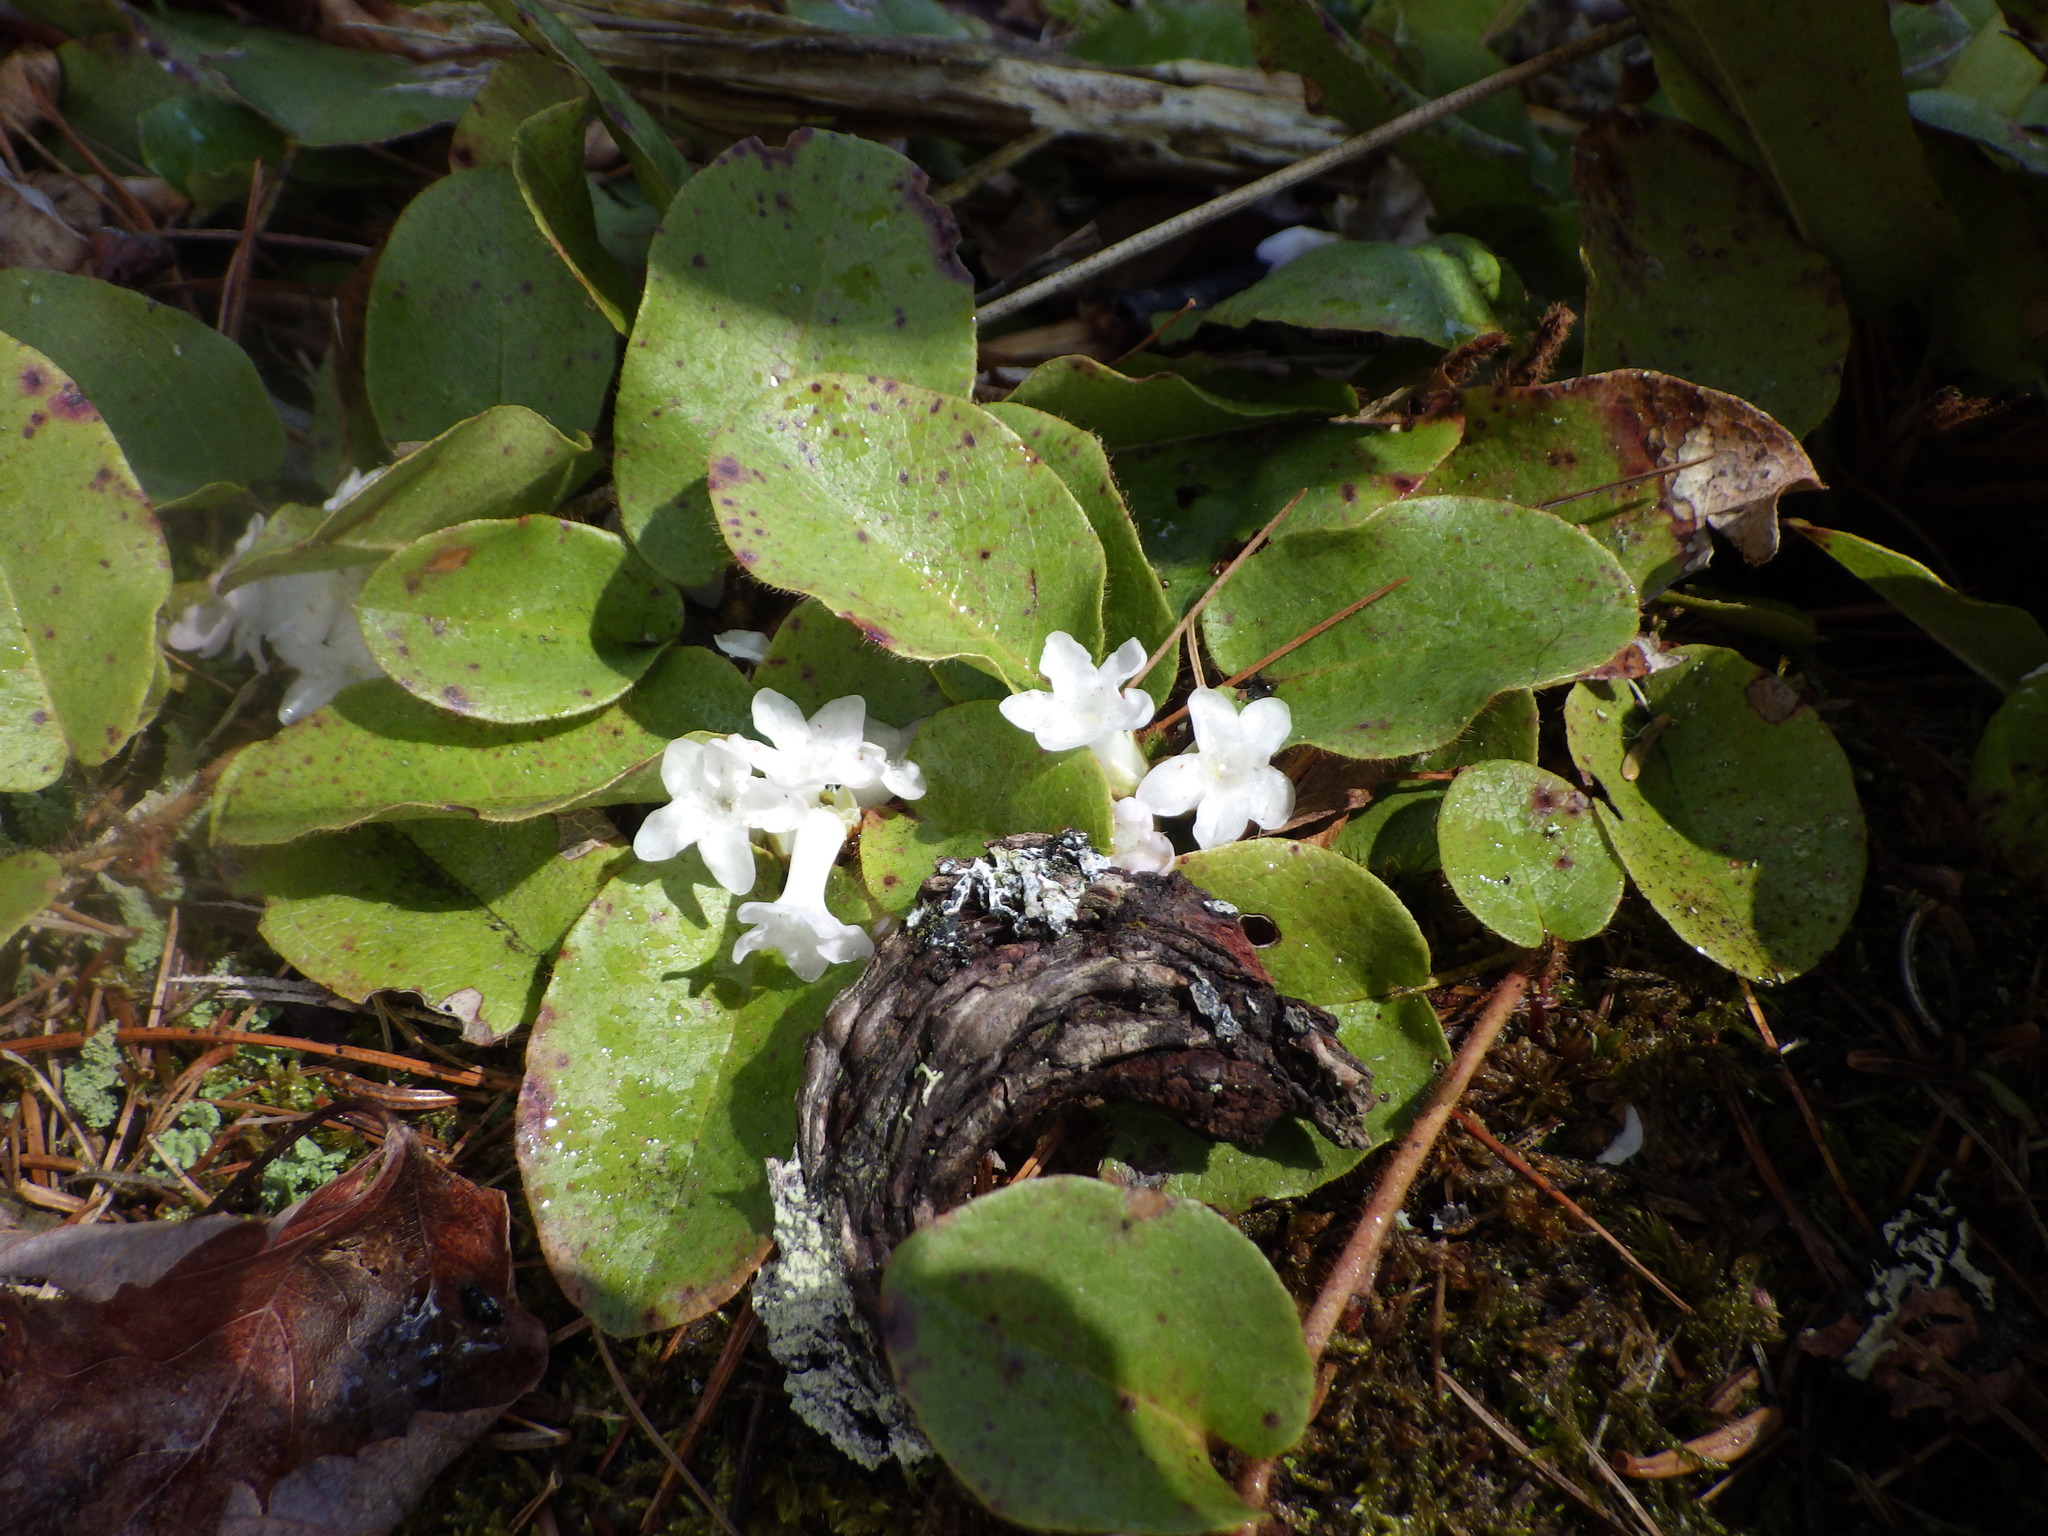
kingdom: Plantae
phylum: Tracheophyta
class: Magnoliopsida
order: Ericales
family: Ericaceae
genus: Epigaea
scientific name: Epigaea repens
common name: Gravelroot
